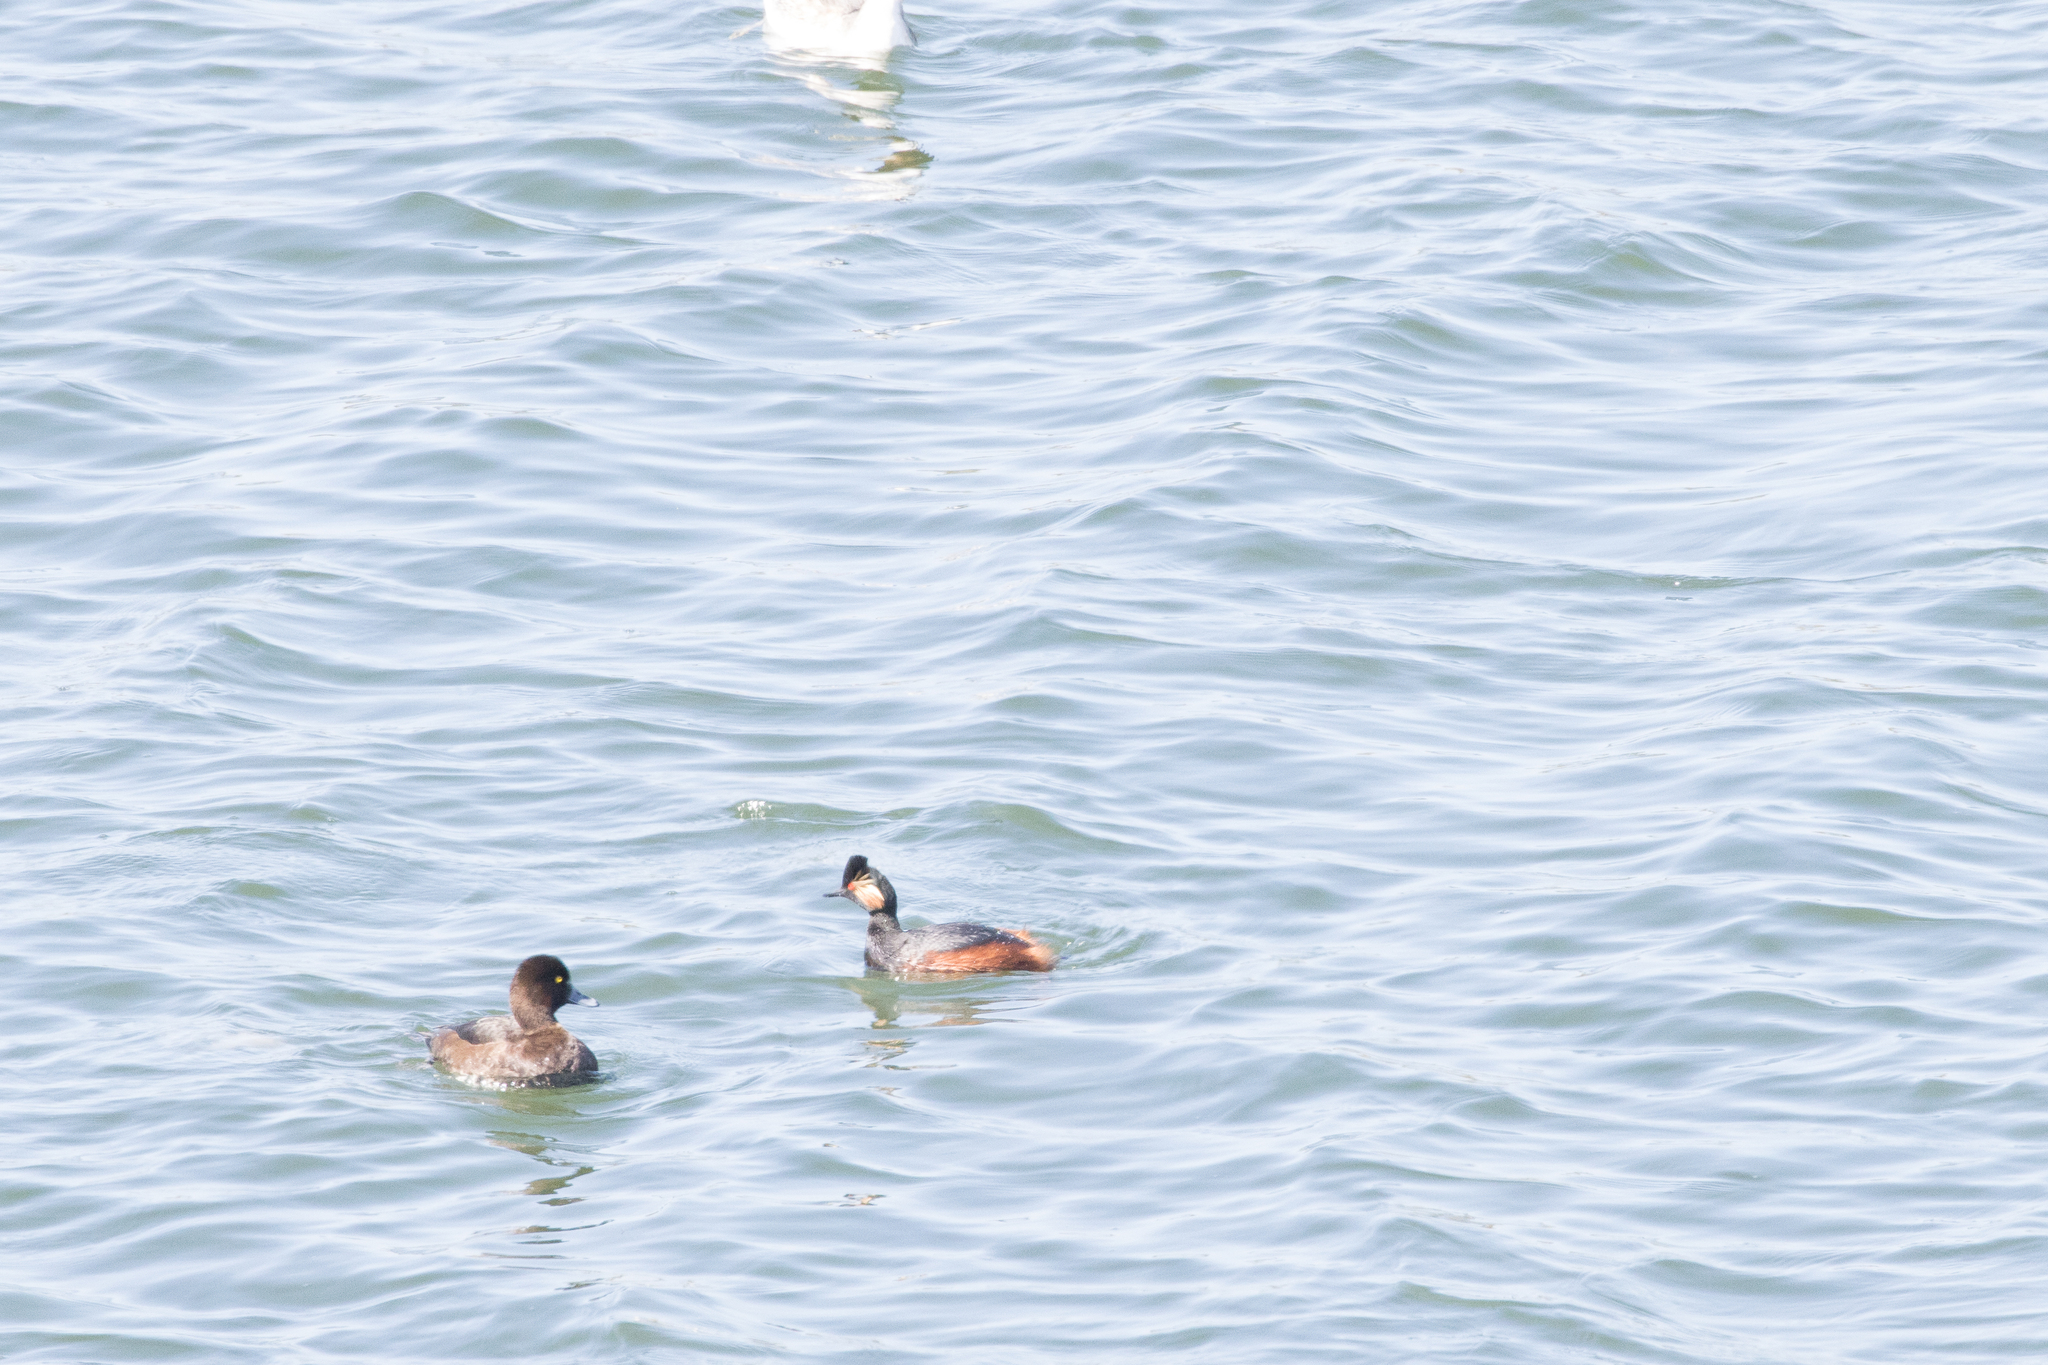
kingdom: Animalia
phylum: Chordata
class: Aves
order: Podicipediformes
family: Podicipedidae
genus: Podiceps
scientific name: Podiceps nigricollis
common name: Black-necked grebe
